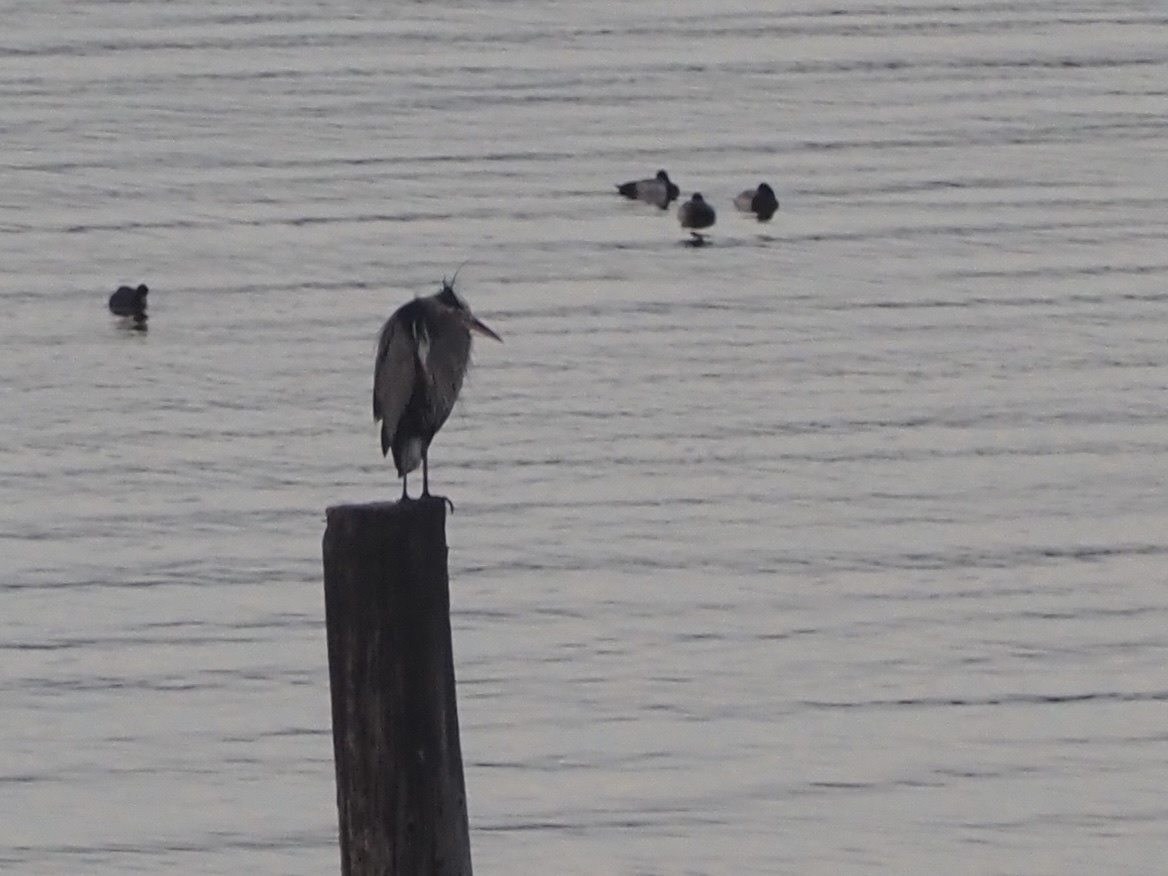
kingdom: Animalia
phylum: Chordata
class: Aves
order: Pelecaniformes
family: Ardeidae
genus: Ardea
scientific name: Ardea herodias
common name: Great blue heron
